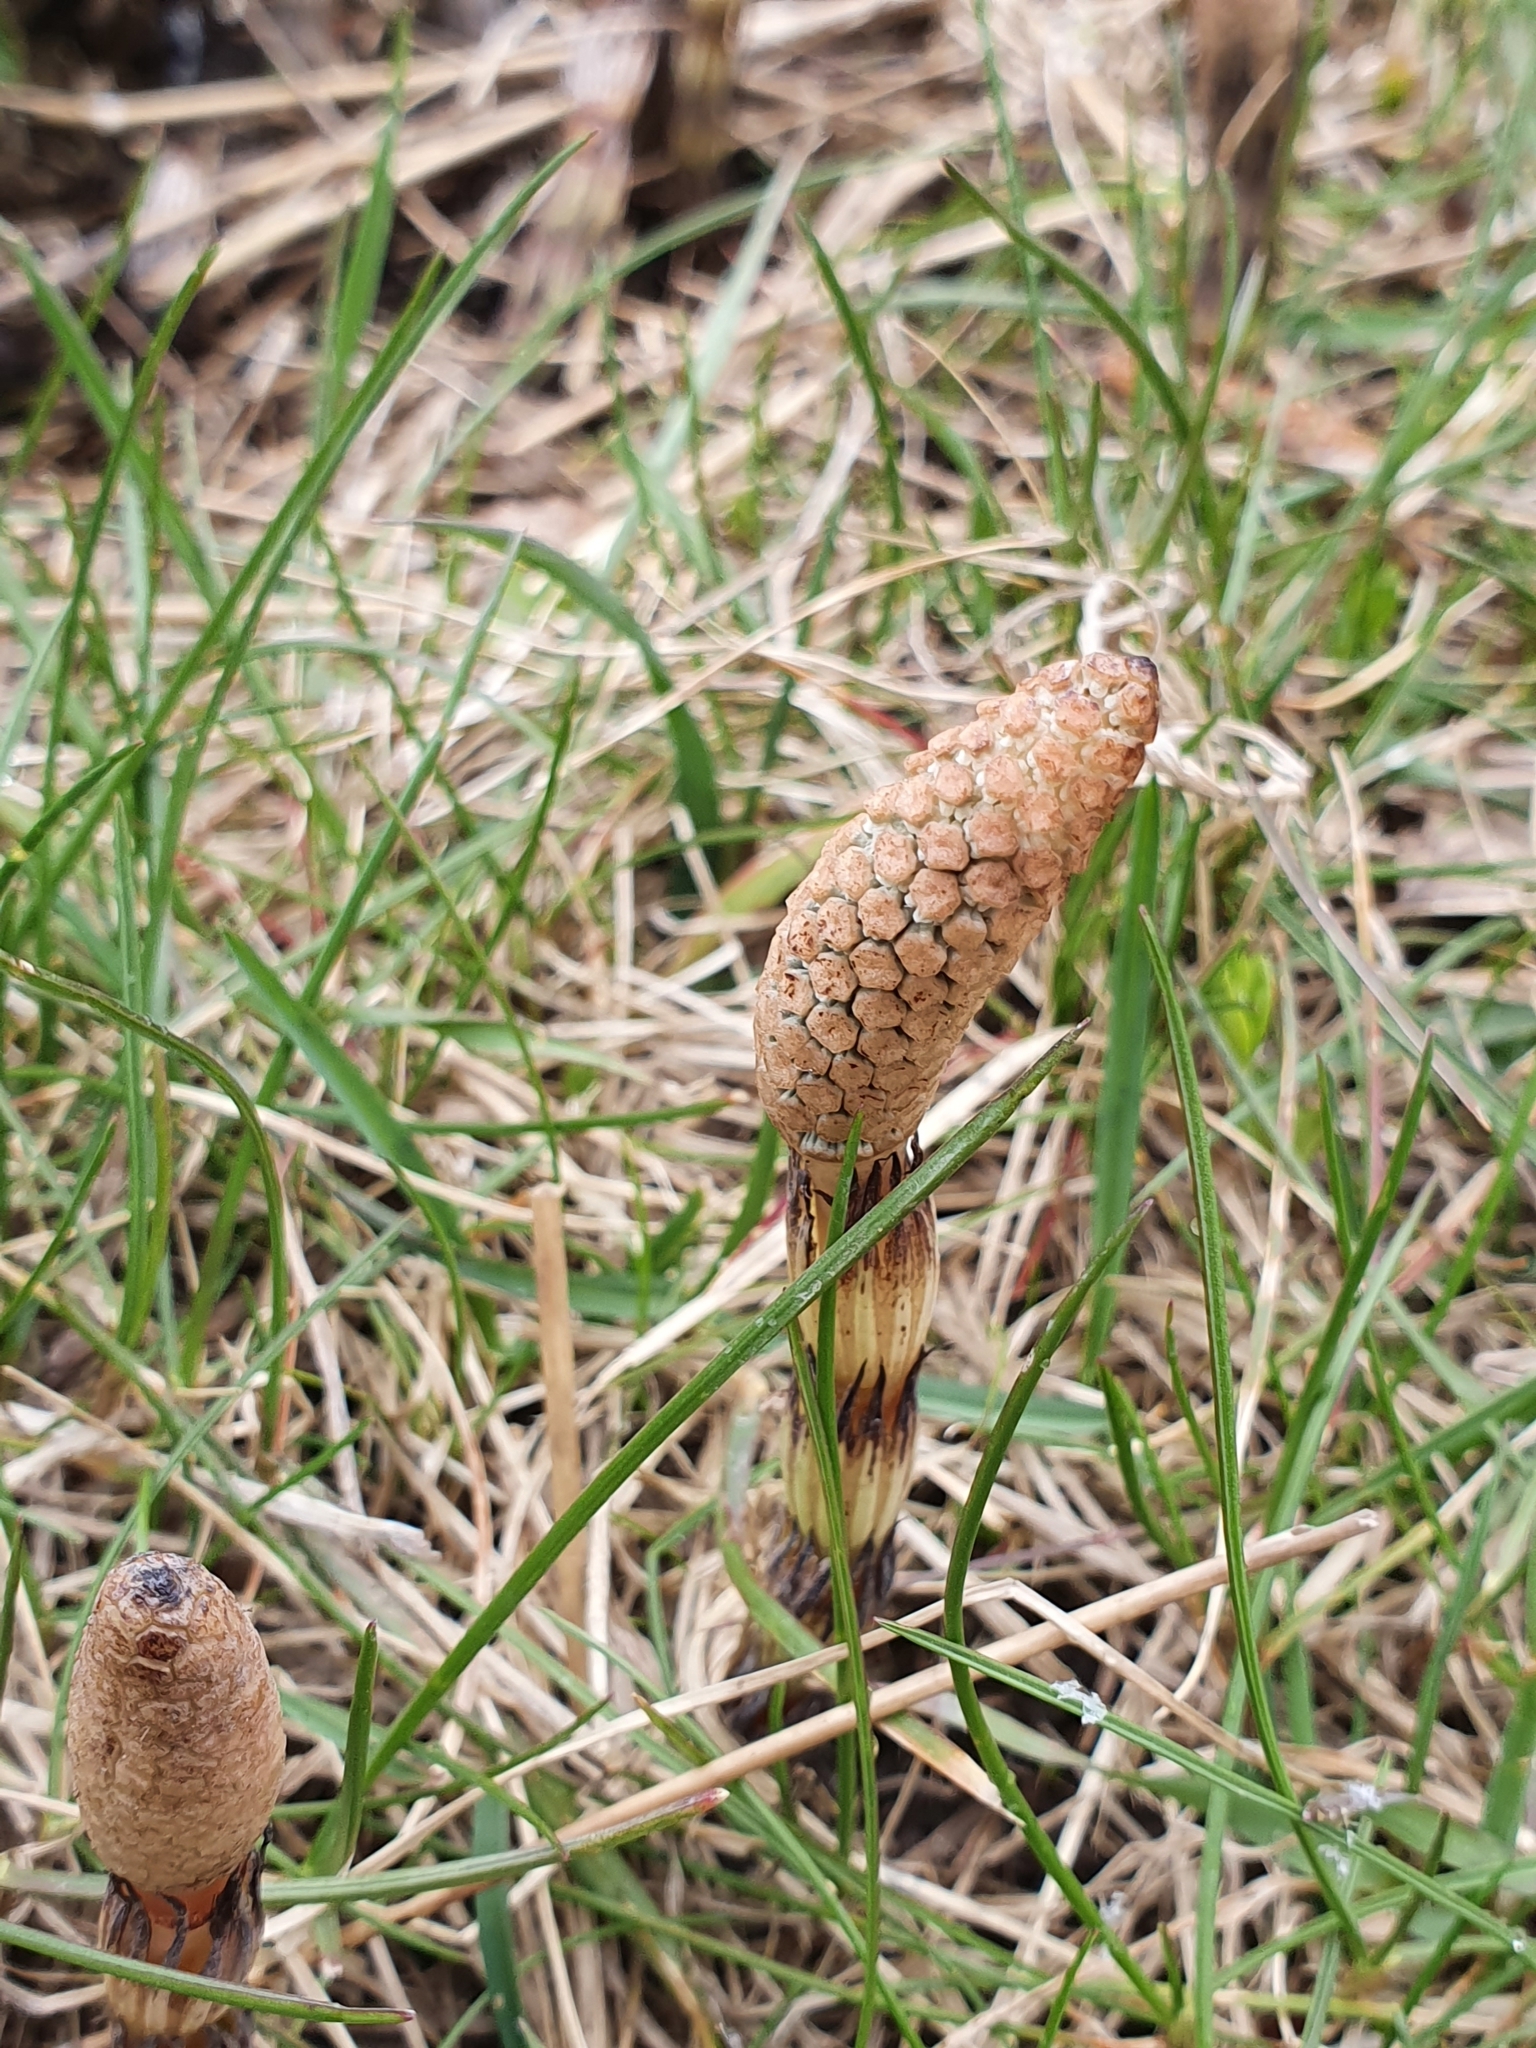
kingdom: Plantae
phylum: Tracheophyta
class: Polypodiopsida
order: Equisetales
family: Equisetaceae
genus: Equisetum
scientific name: Equisetum arvense
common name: Field horsetail
